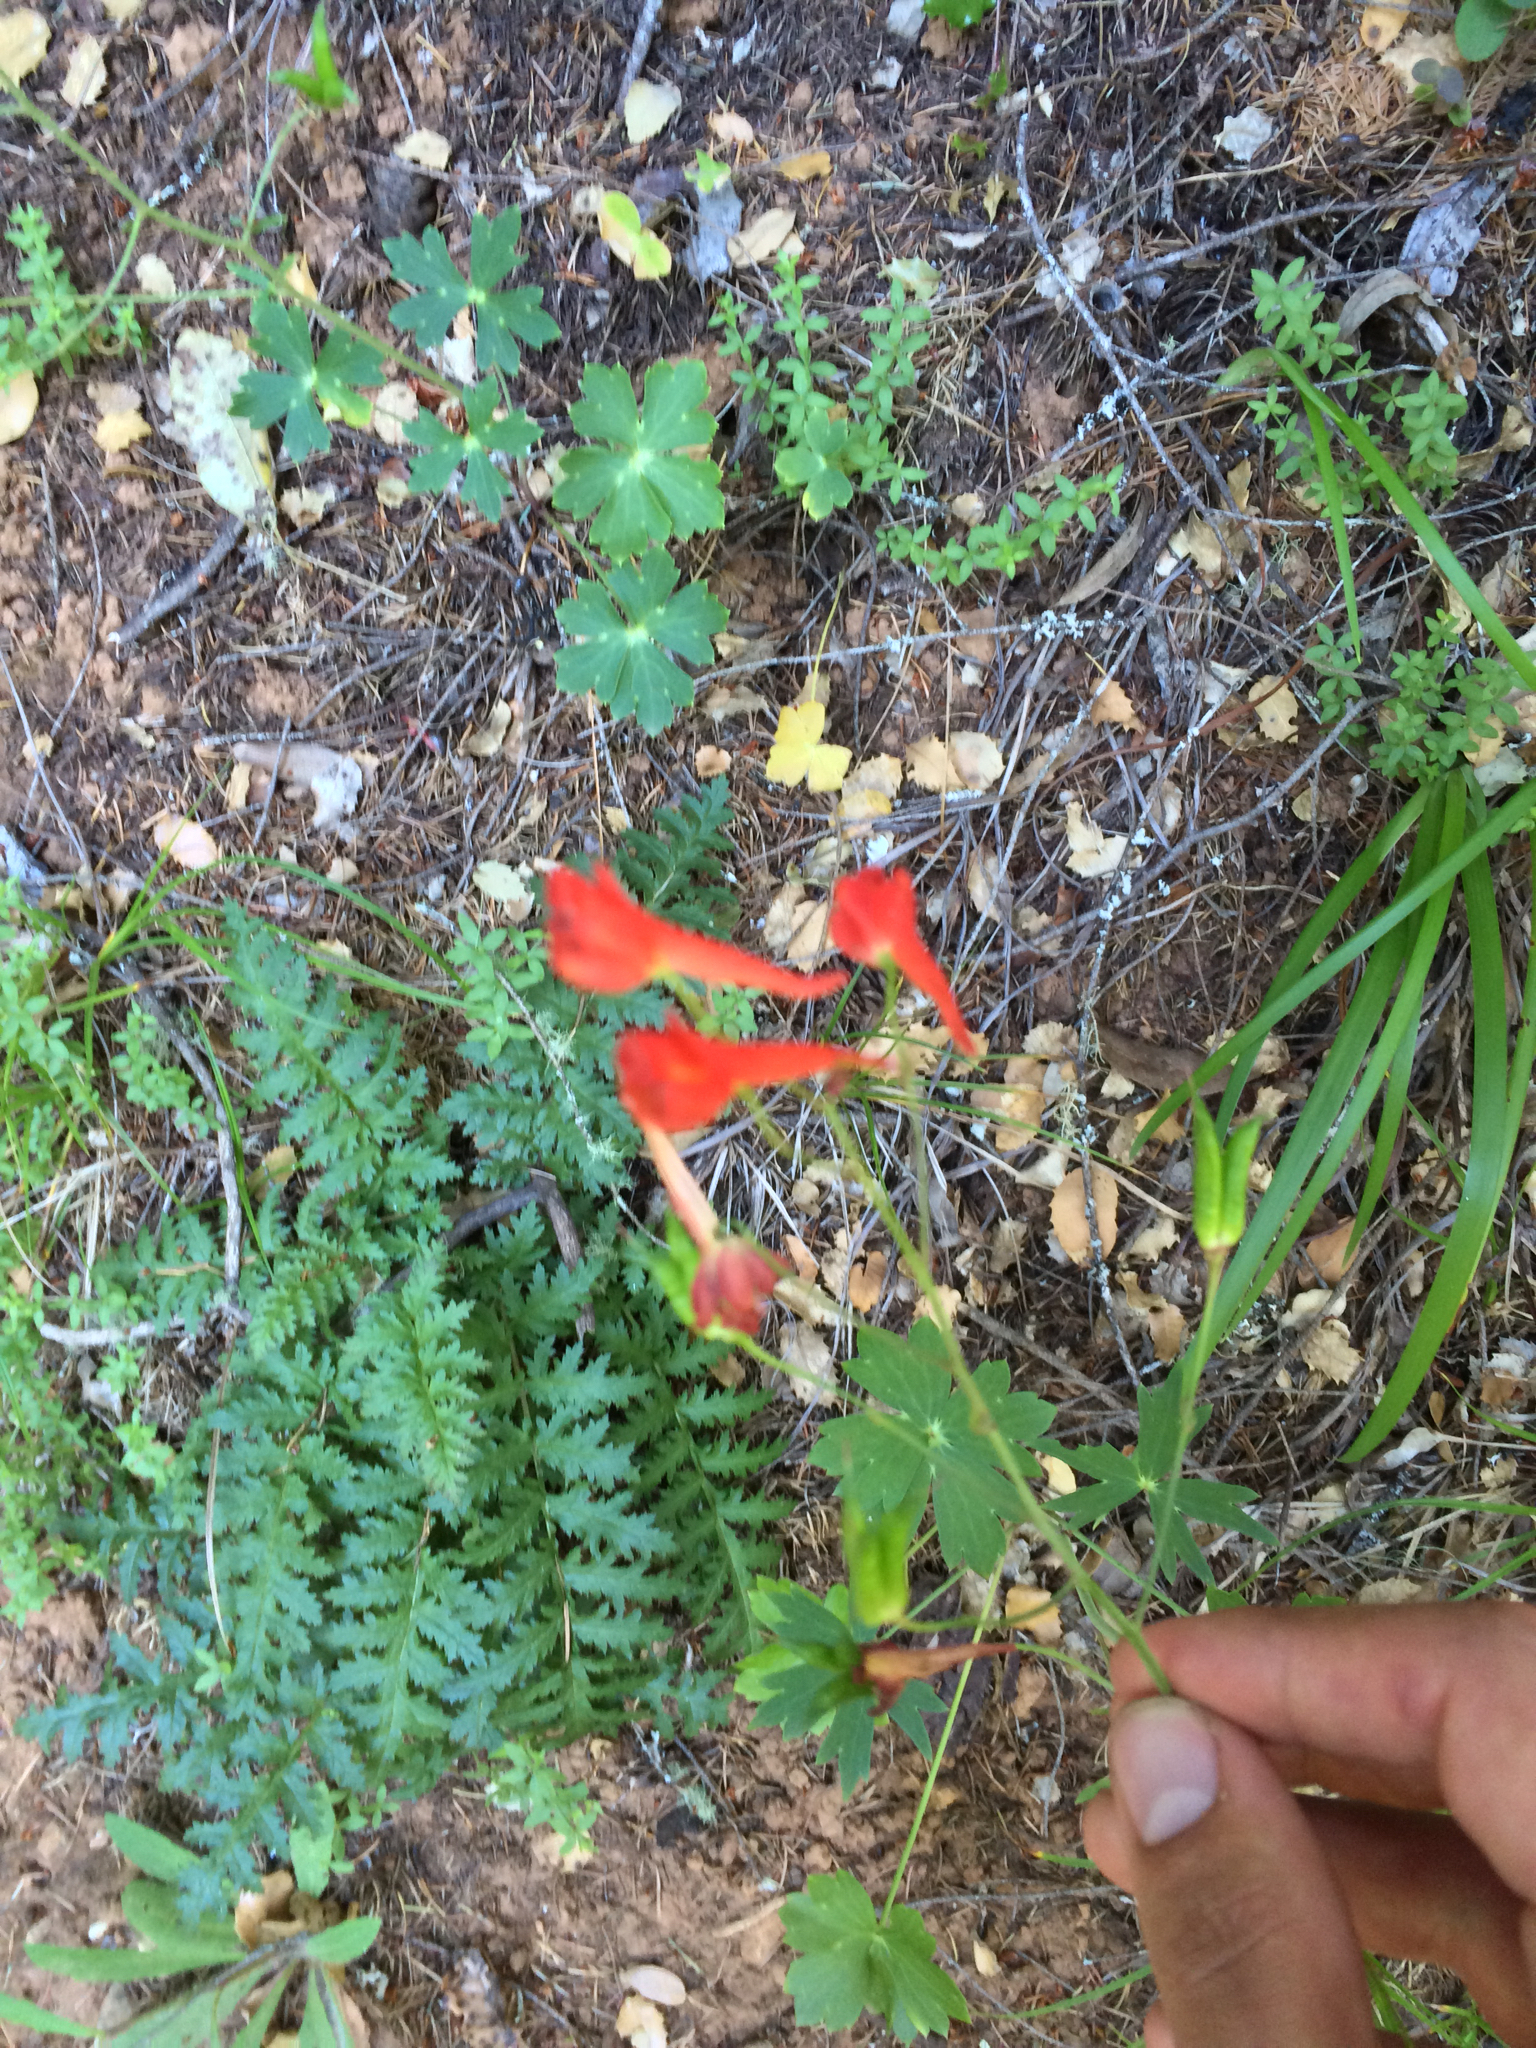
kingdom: Plantae
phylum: Tracheophyta
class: Magnoliopsida
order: Ranunculales
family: Ranunculaceae
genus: Delphinium
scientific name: Delphinium nudicaule
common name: Red larkspur
